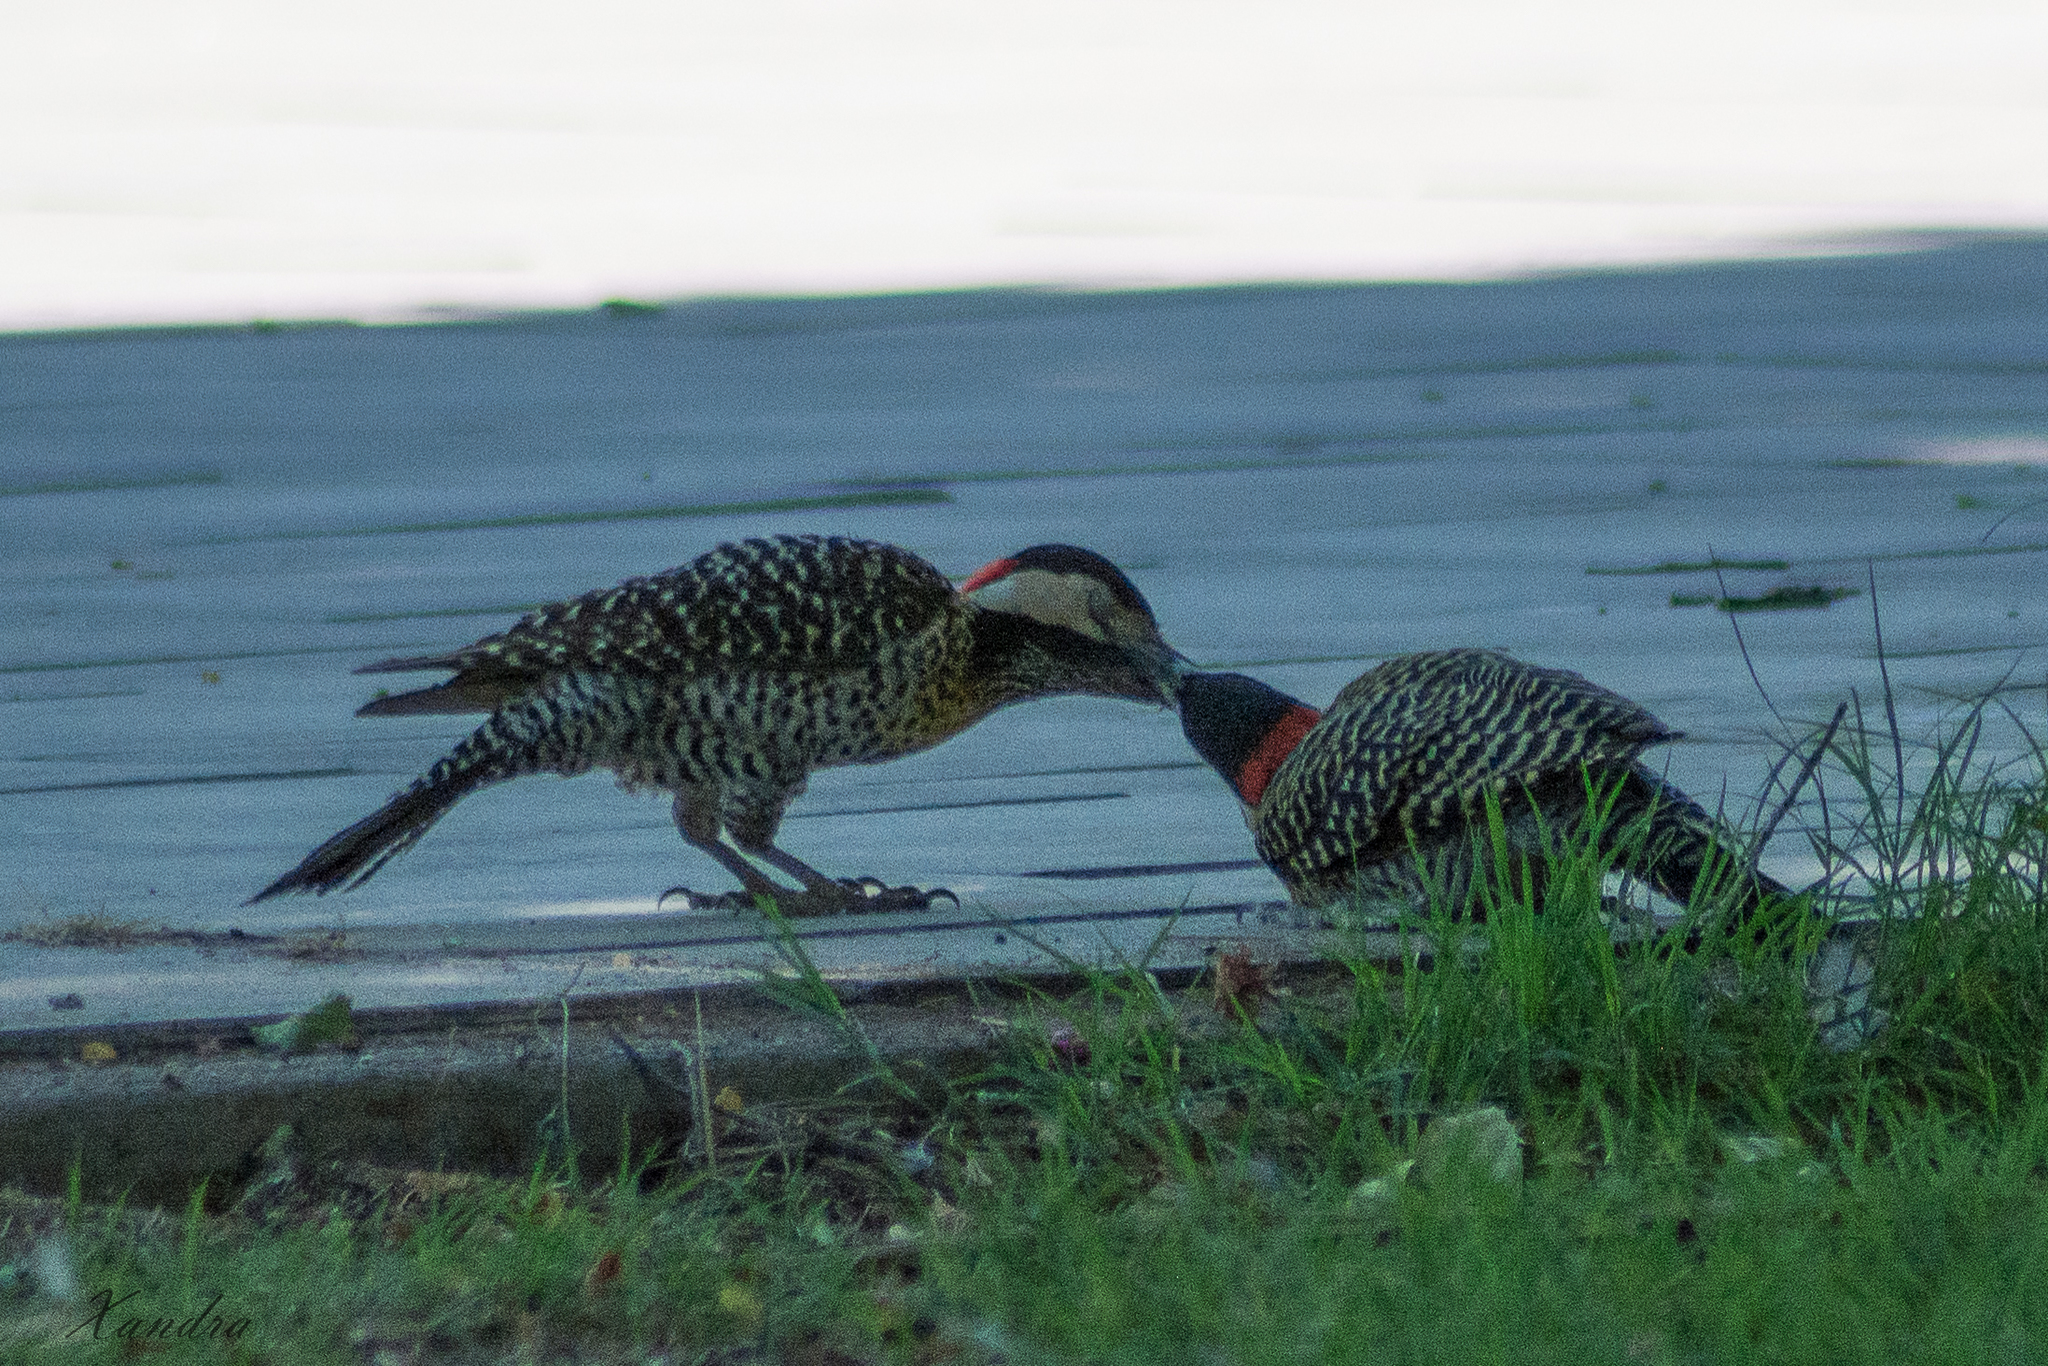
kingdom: Animalia
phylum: Chordata
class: Aves
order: Piciformes
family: Picidae
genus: Colaptes
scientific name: Colaptes melanochloros
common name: Green-barred woodpecker
